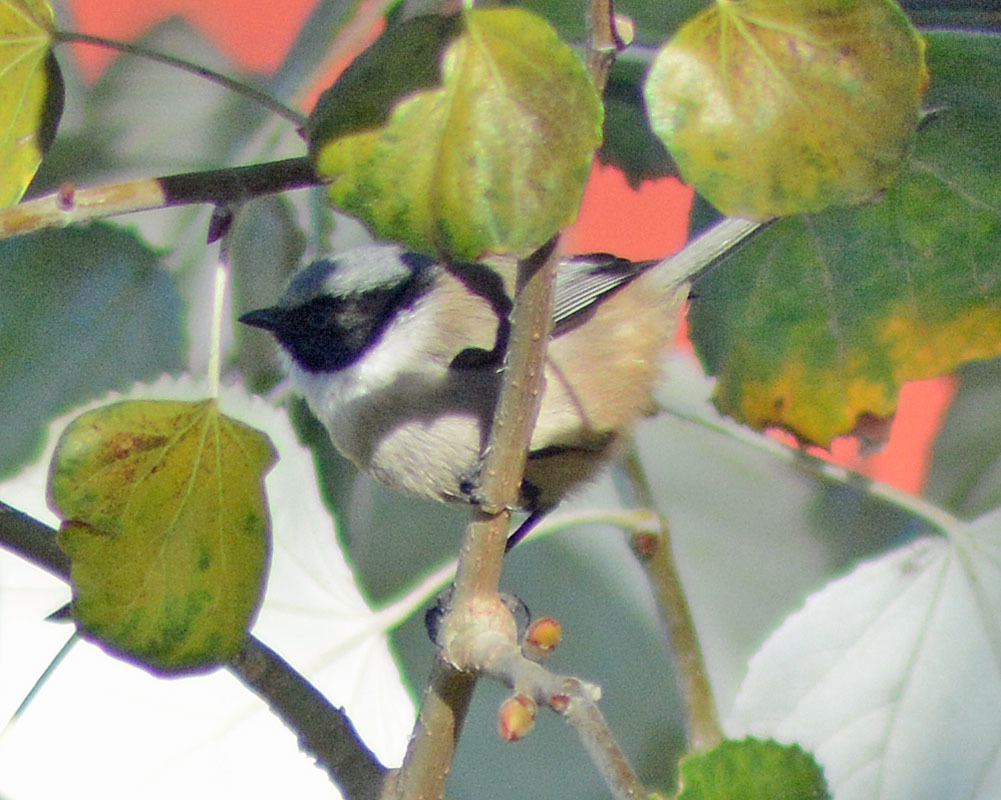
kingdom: Animalia
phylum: Chordata
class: Aves
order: Passeriformes
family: Aegithalidae
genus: Psaltriparus
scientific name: Psaltriparus minimus
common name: American bushtit
